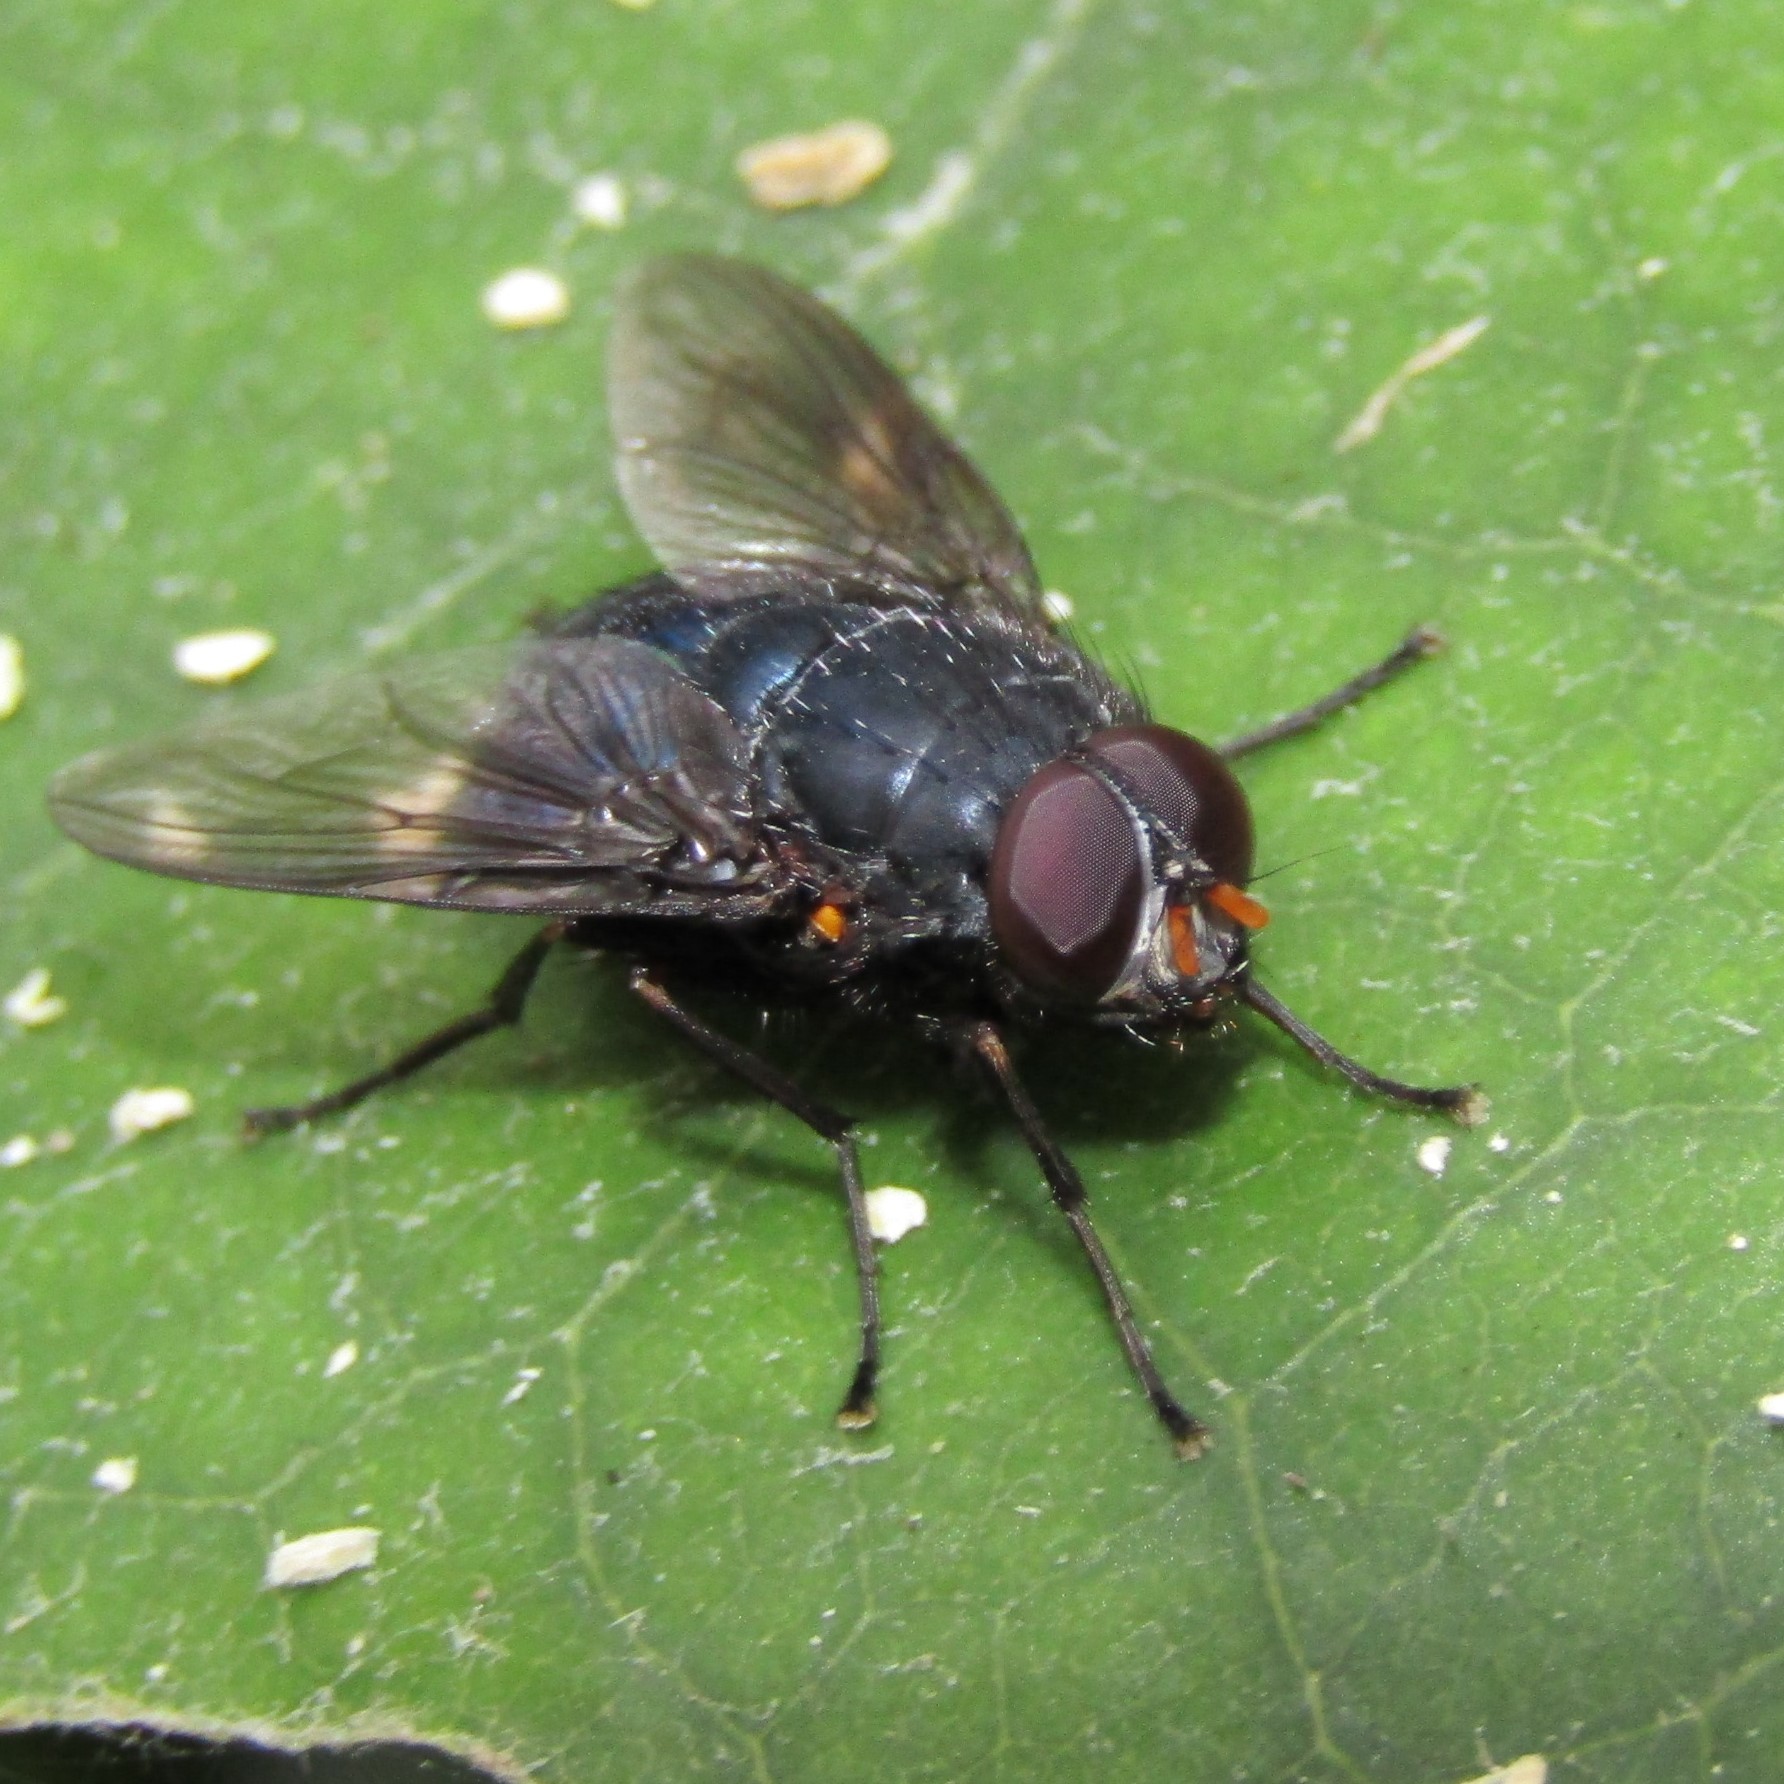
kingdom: Animalia
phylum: Arthropoda
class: Insecta
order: Diptera
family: Muscidae
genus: Calliphoroides
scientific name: Calliphoroides antennatis
